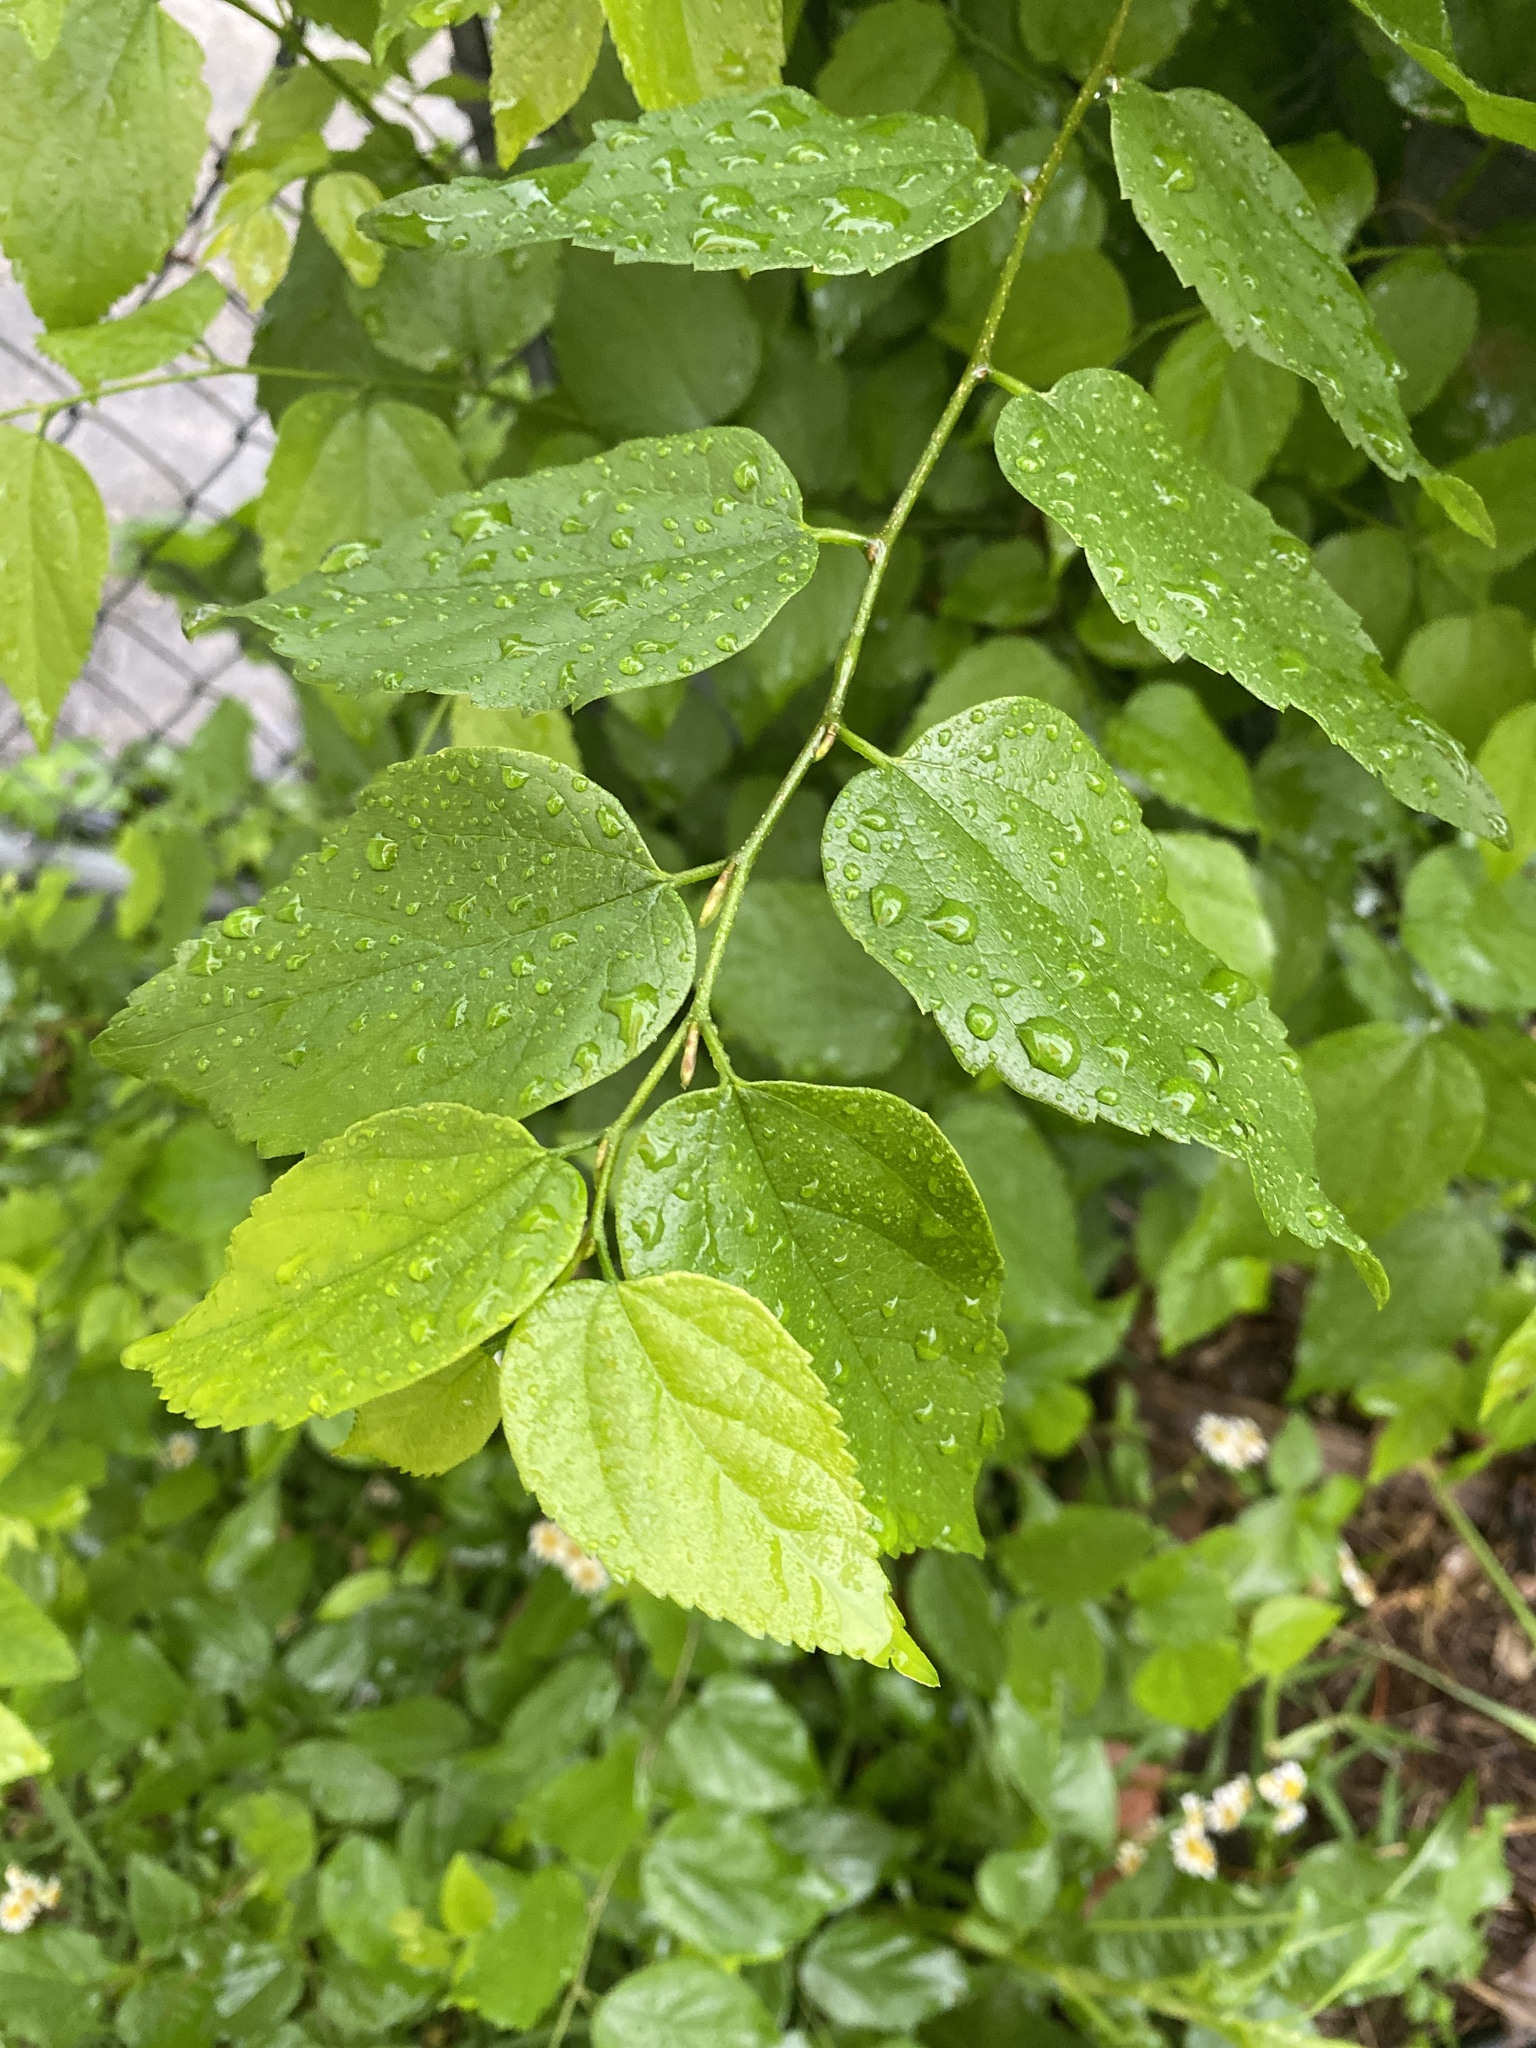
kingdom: Plantae
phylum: Tracheophyta
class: Magnoliopsida
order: Rosales
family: Cannabaceae
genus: Celtis
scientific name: Celtis laevigata
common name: Sugarberry
